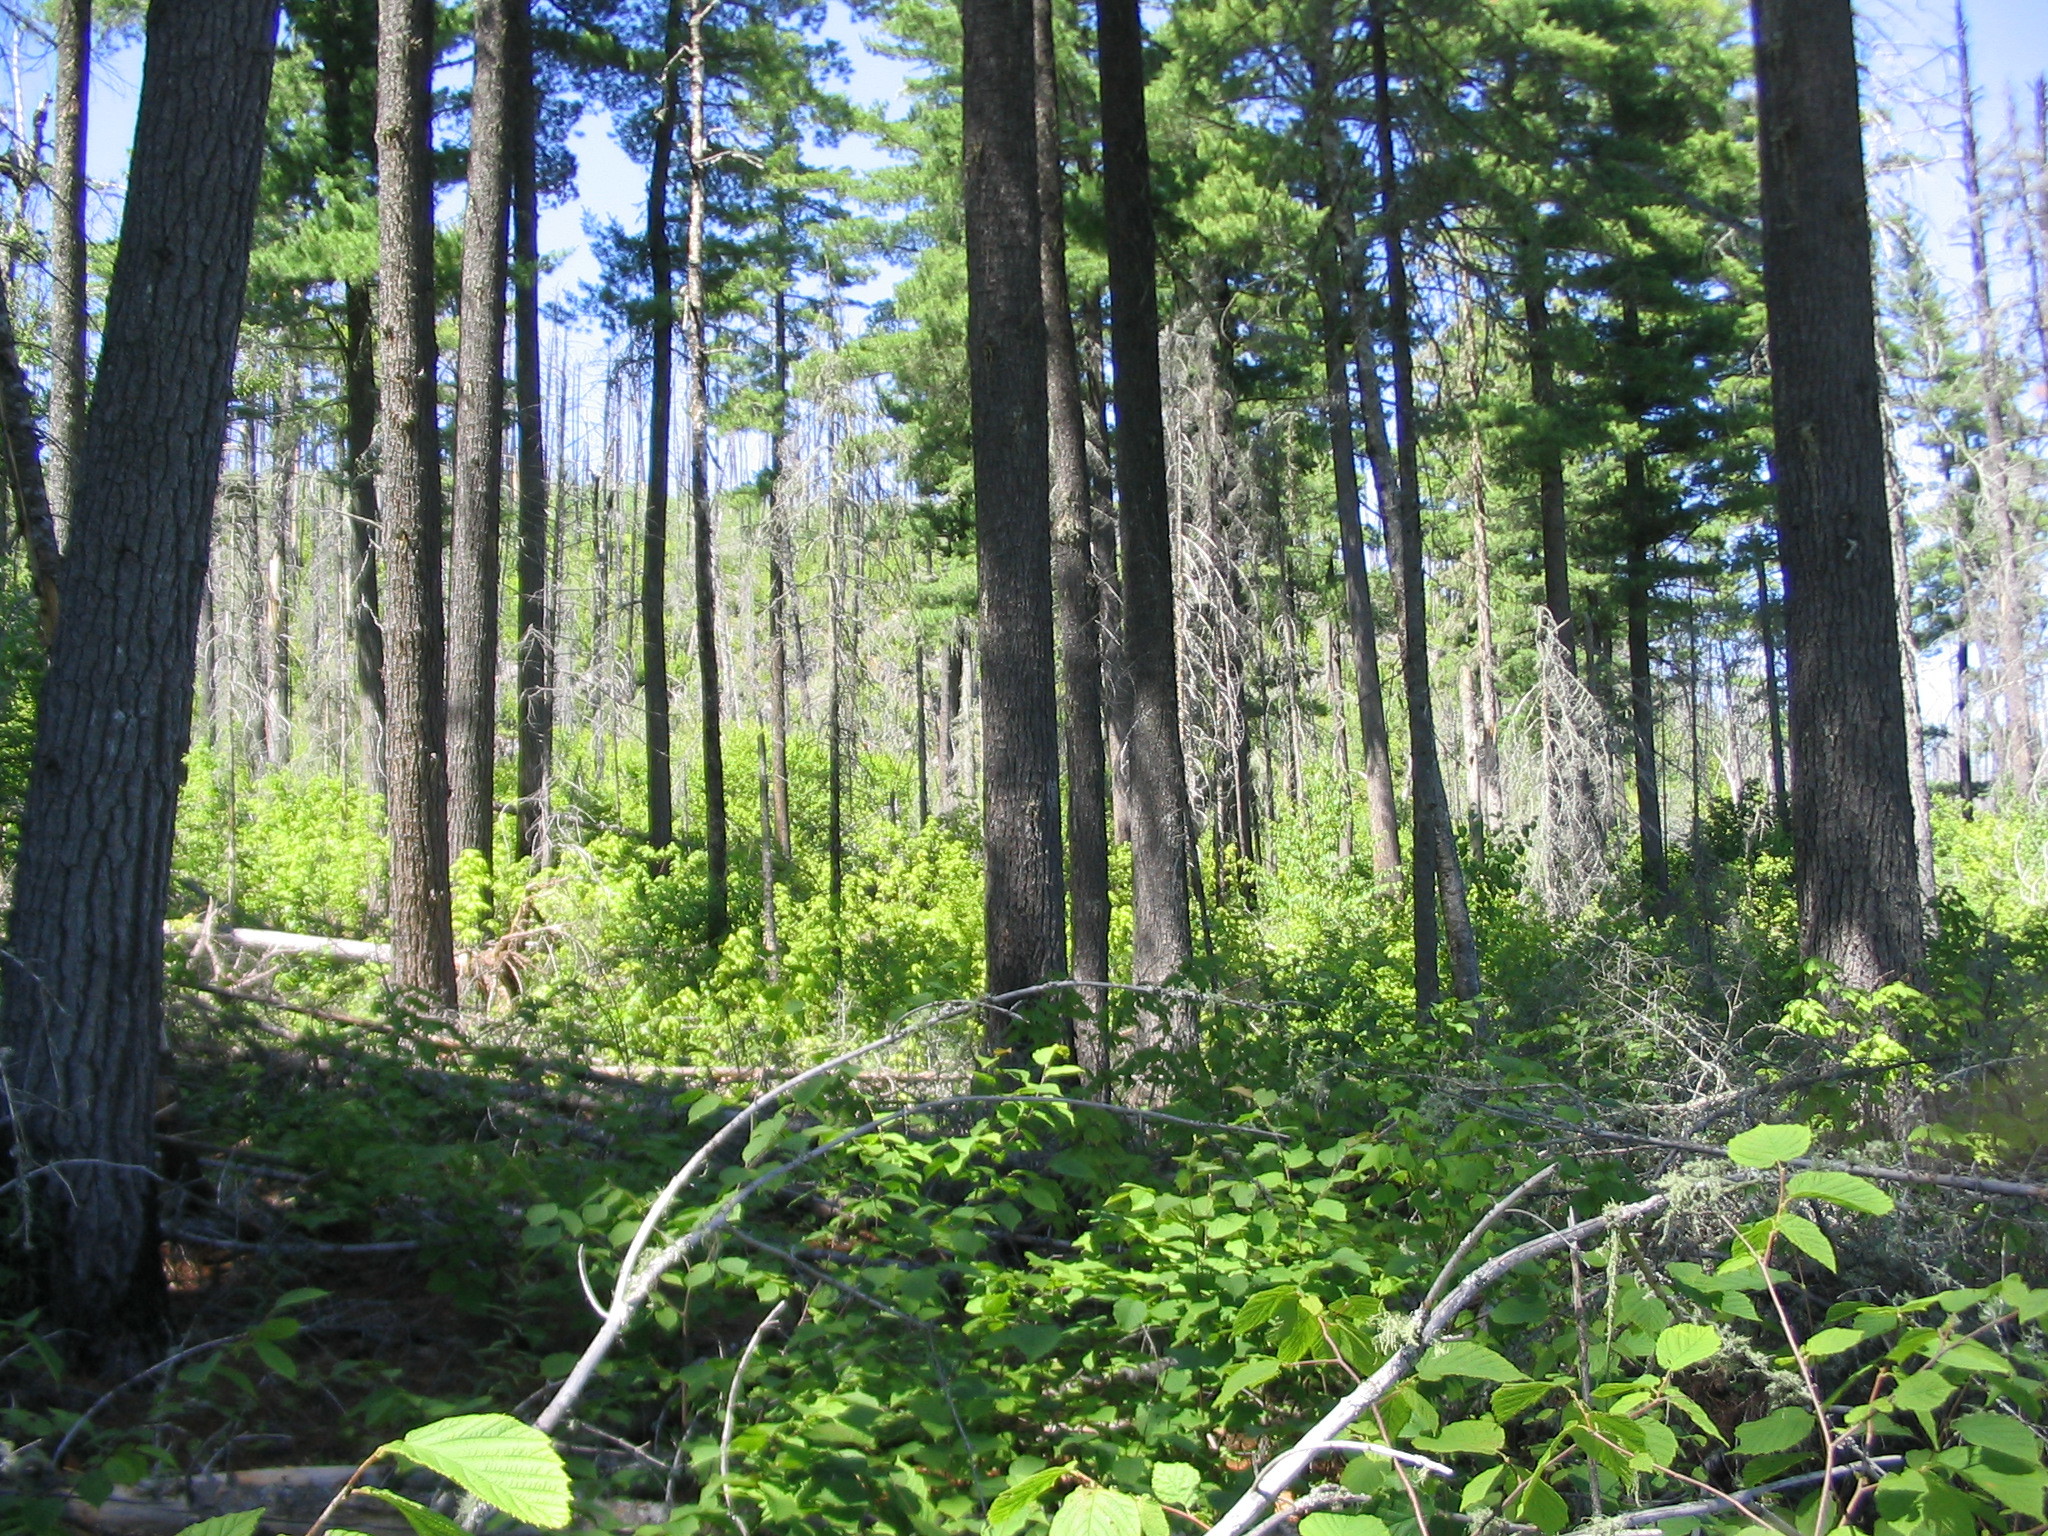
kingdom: Plantae
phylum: Tracheophyta
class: Pinopsida
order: Pinales
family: Pinaceae
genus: Pinus
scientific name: Pinus strobus
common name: Weymouth pine
